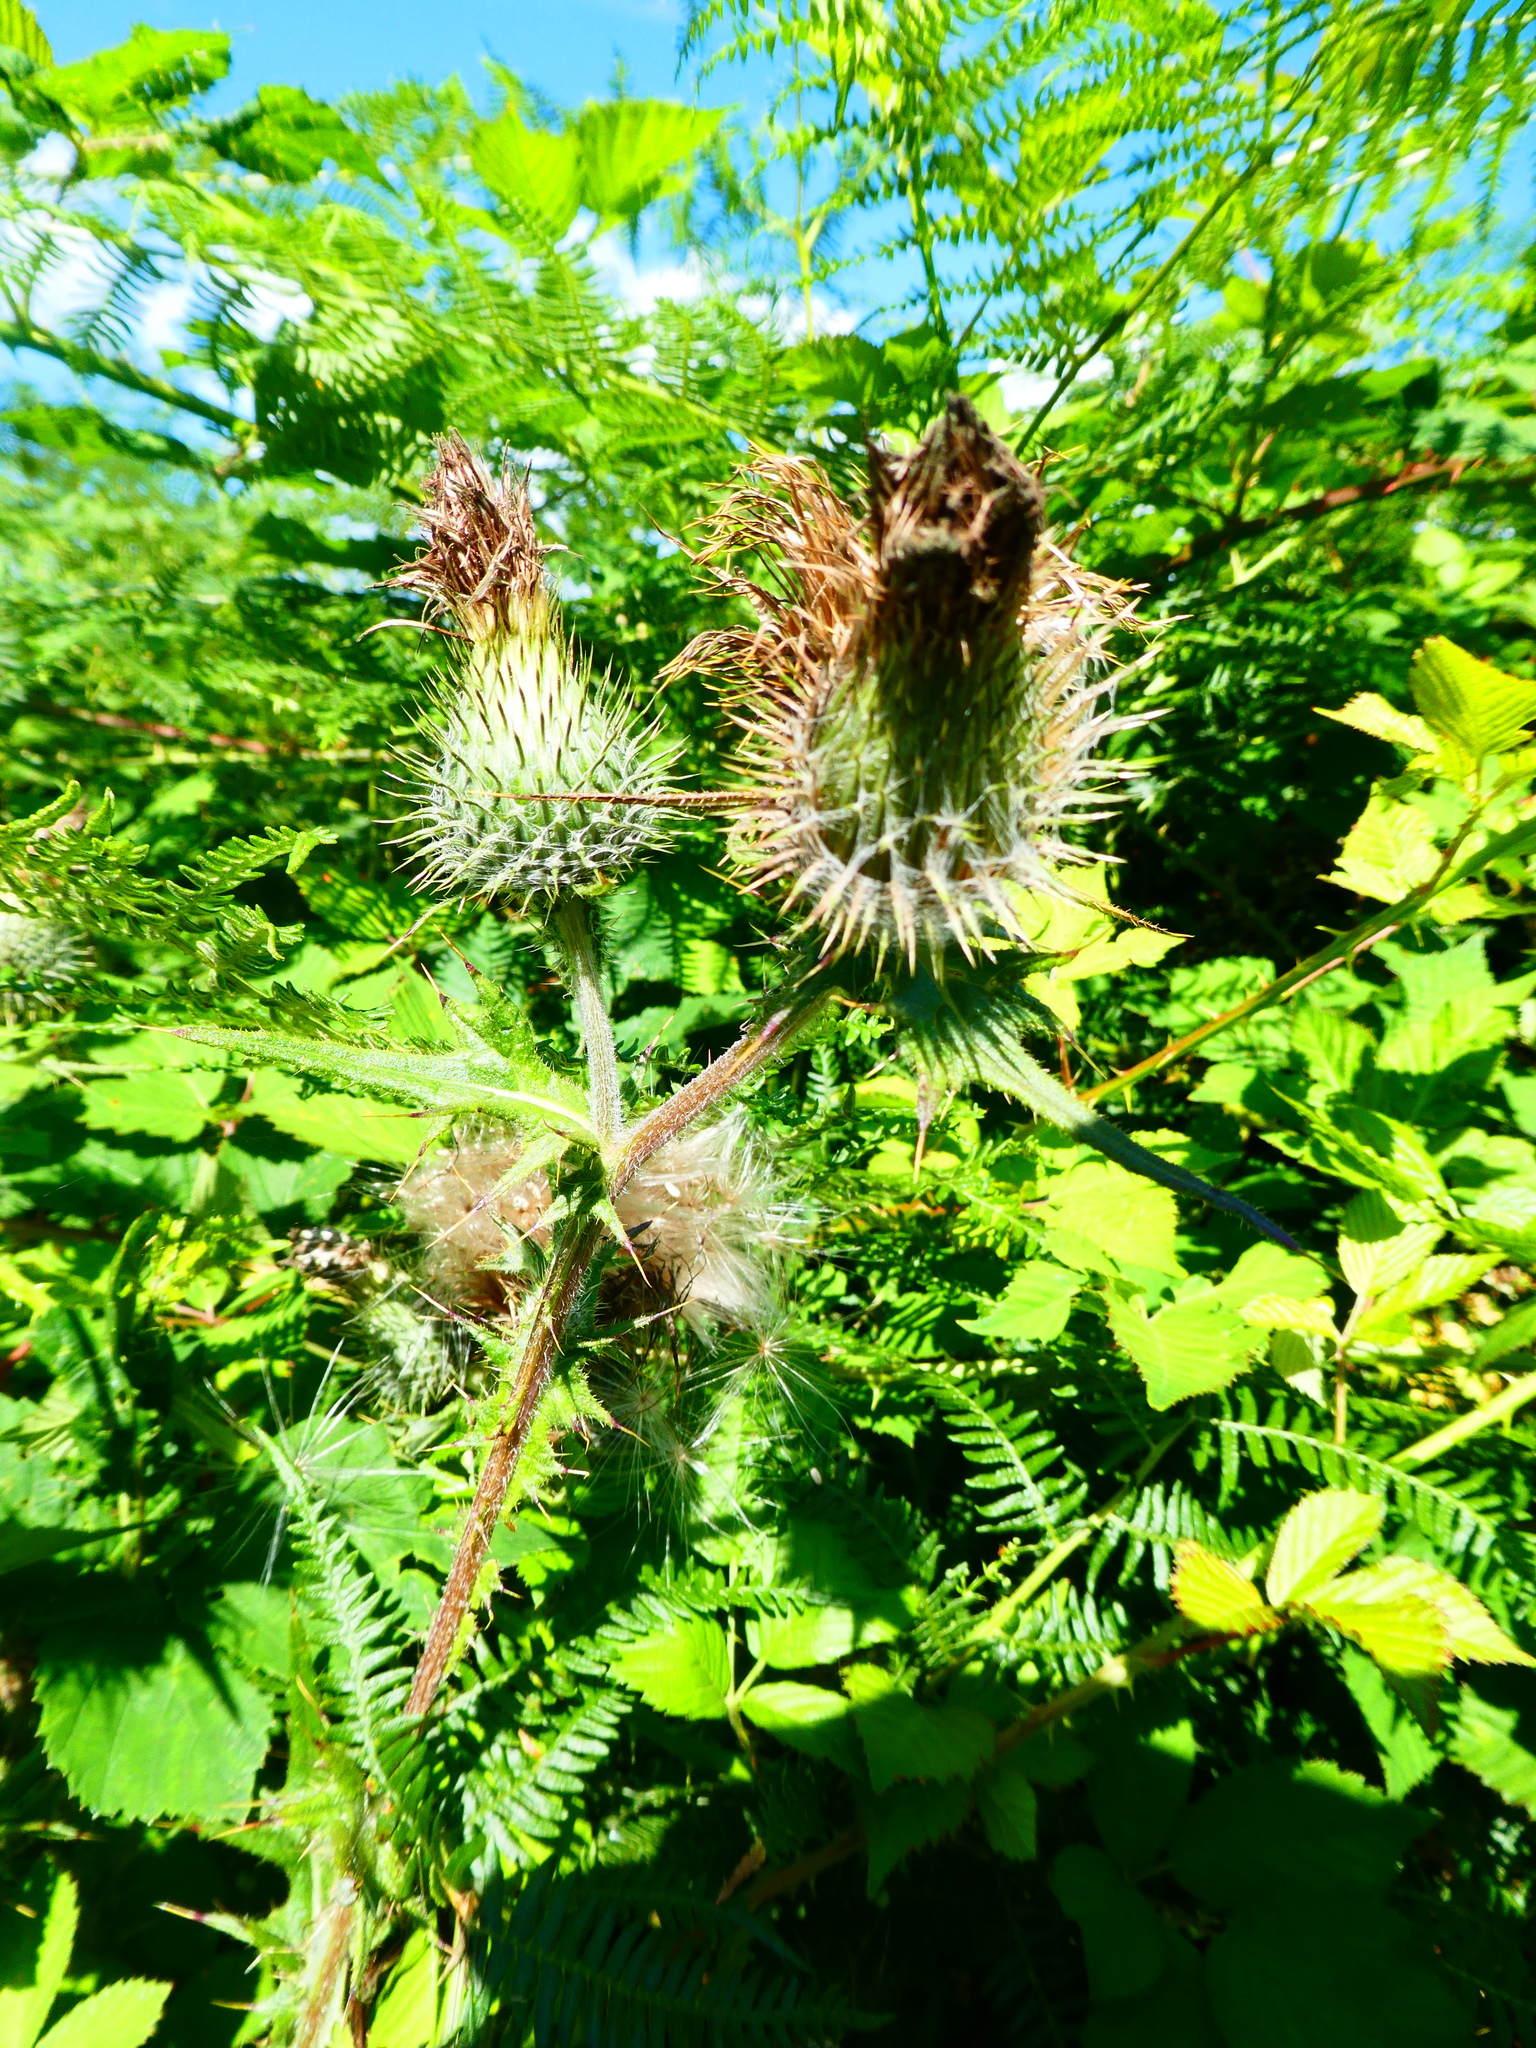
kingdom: Plantae
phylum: Tracheophyta
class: Magnoliopsida
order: Asterales
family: Asteraceae
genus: Cirsium
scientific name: Cirsium vulgare
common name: Bull thistle
